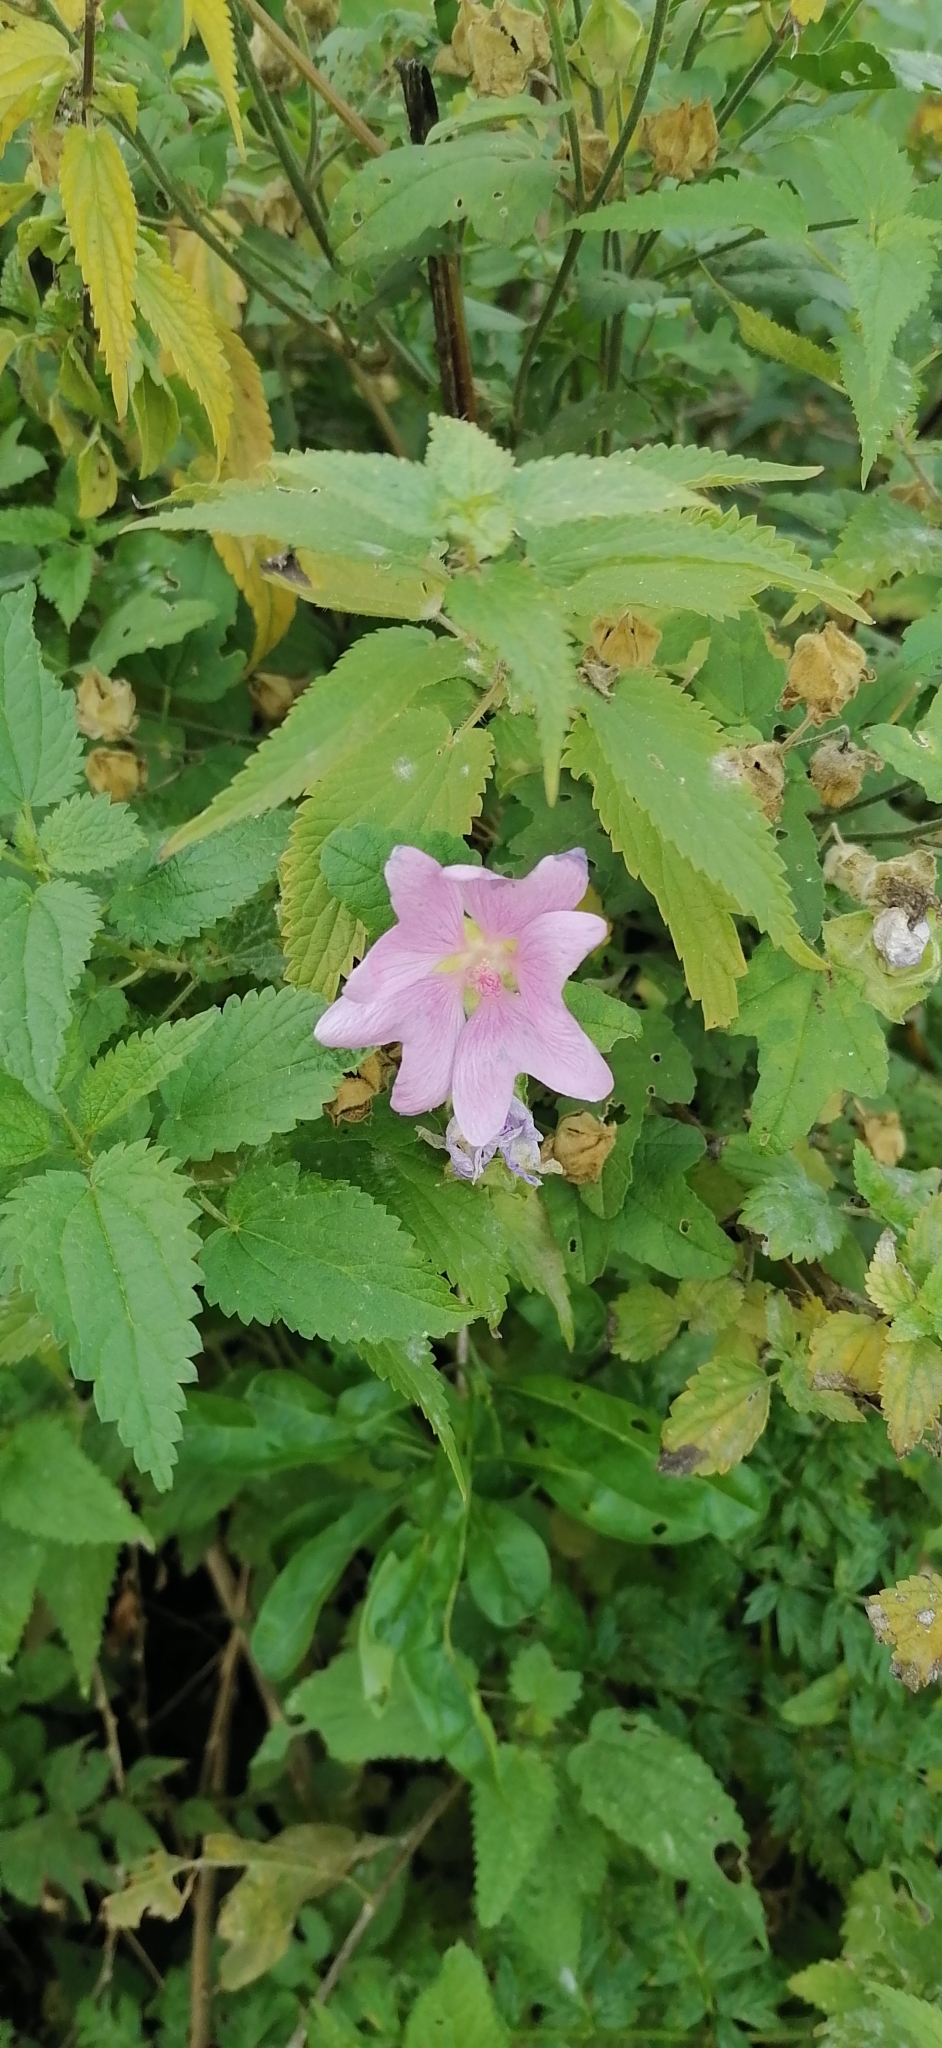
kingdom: Plantae
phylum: Tracheophyta
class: Magnoliopsida
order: Malvales
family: Malvaceae
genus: Malva
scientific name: Malva thuringiaca
